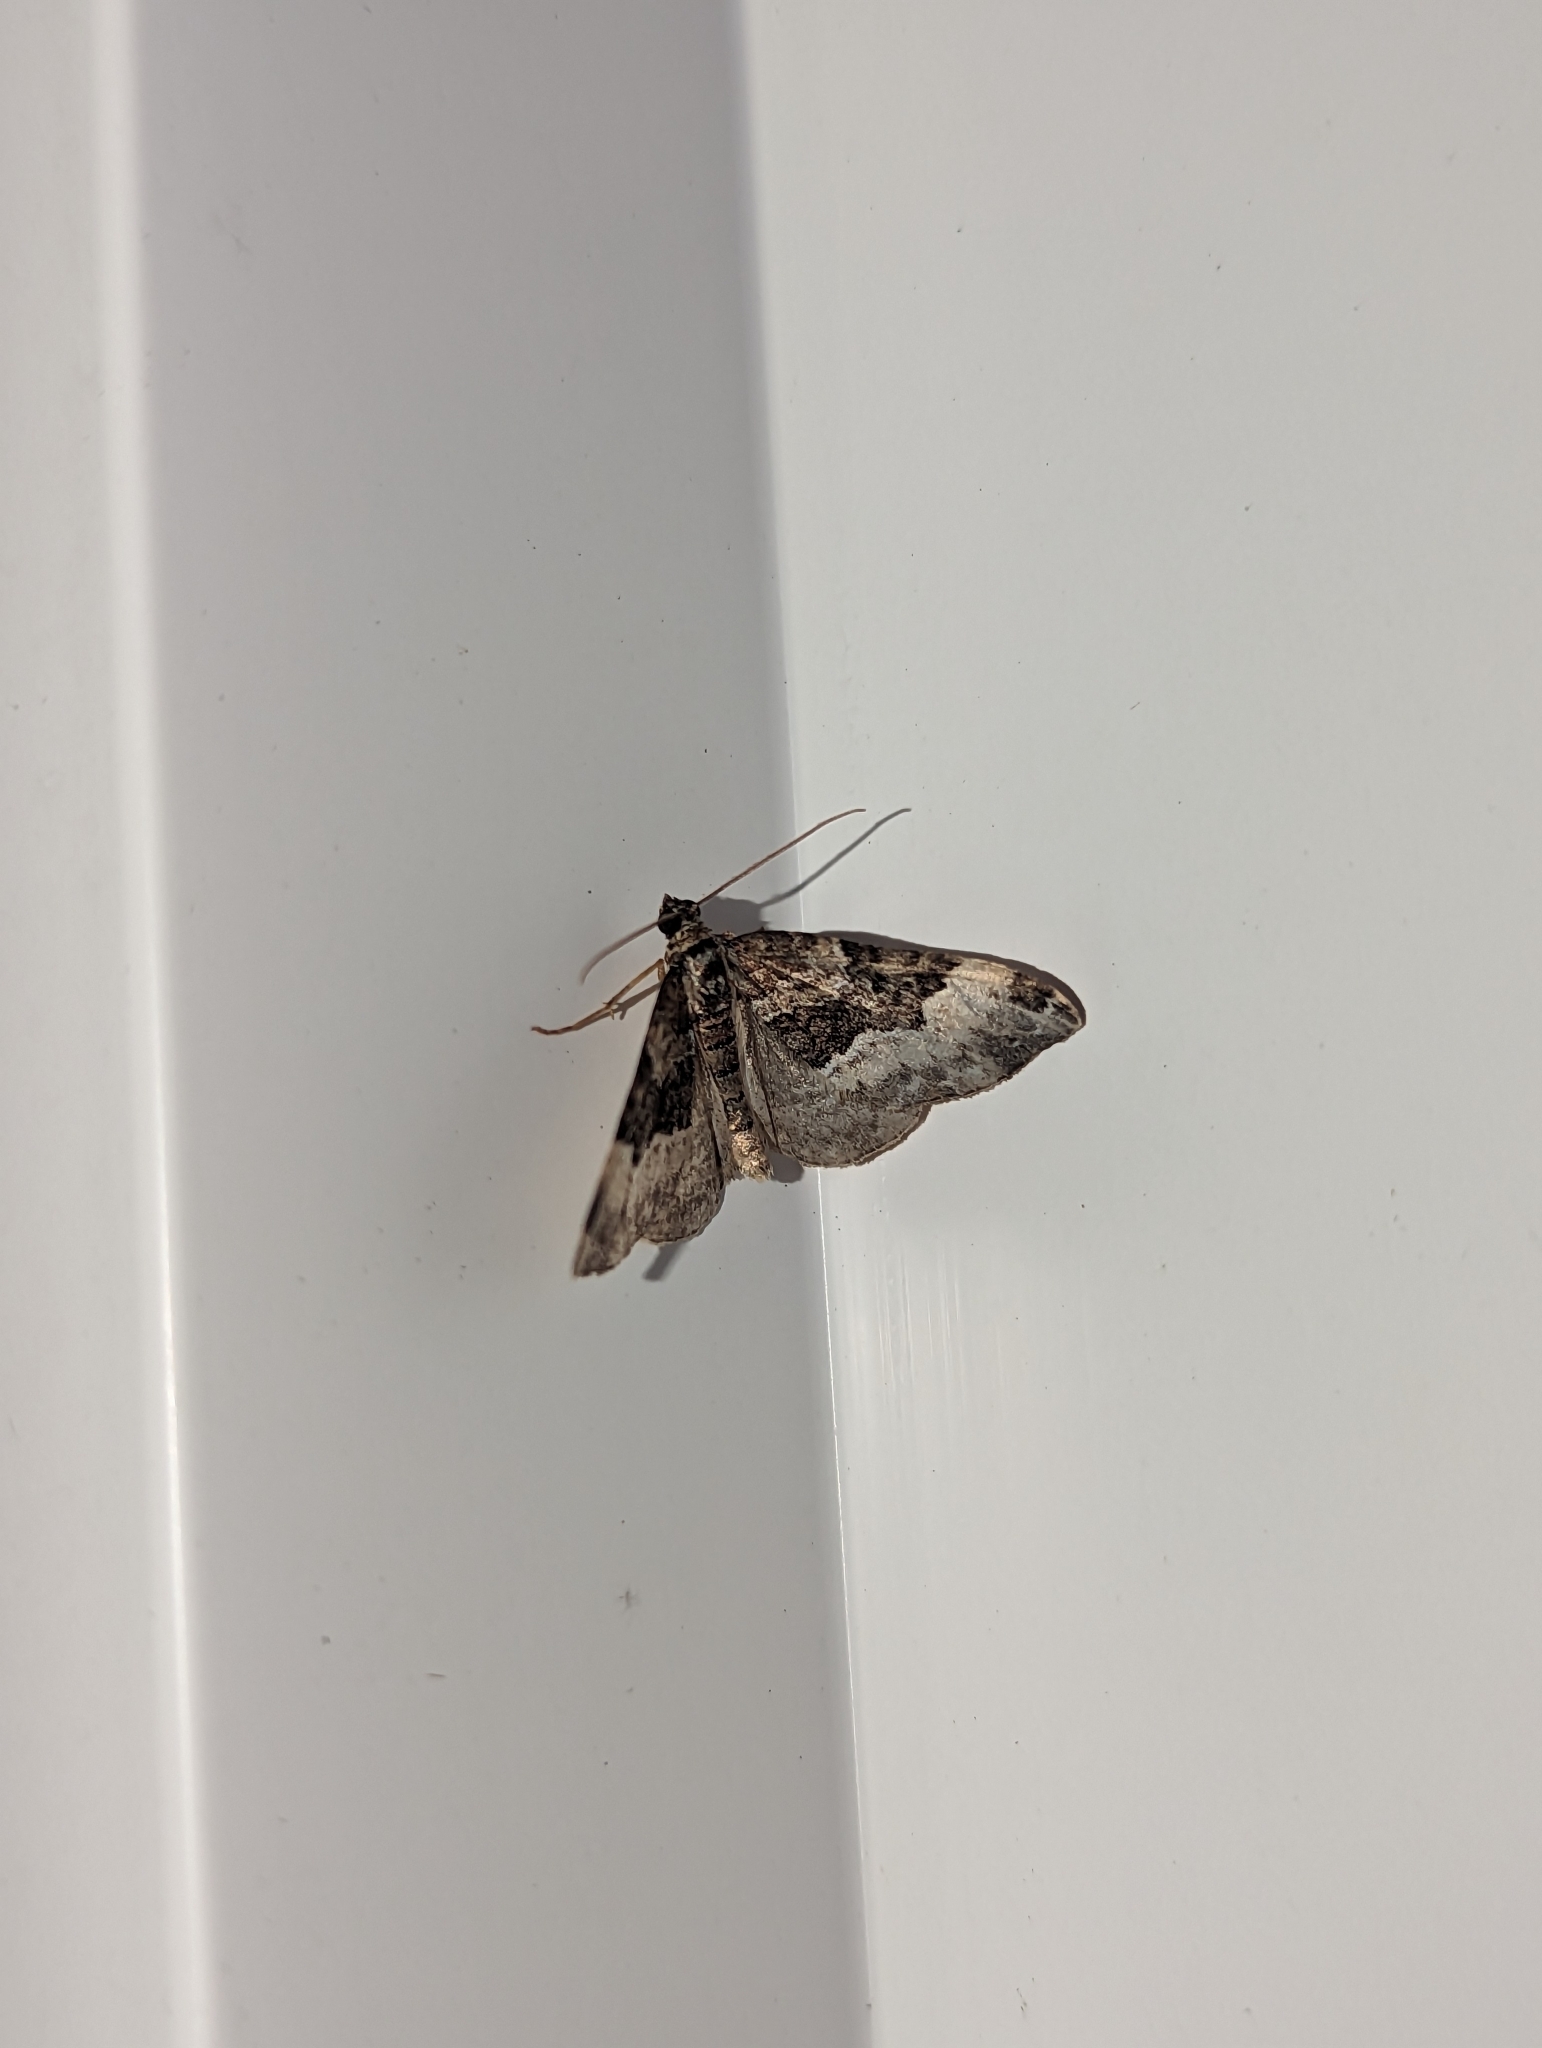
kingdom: Animalia
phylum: Arthropoda
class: Insecta
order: Lepidoptera
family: Geometridae
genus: Euphyia
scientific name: Euphyia intermediata
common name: Sharp-angled carpet
